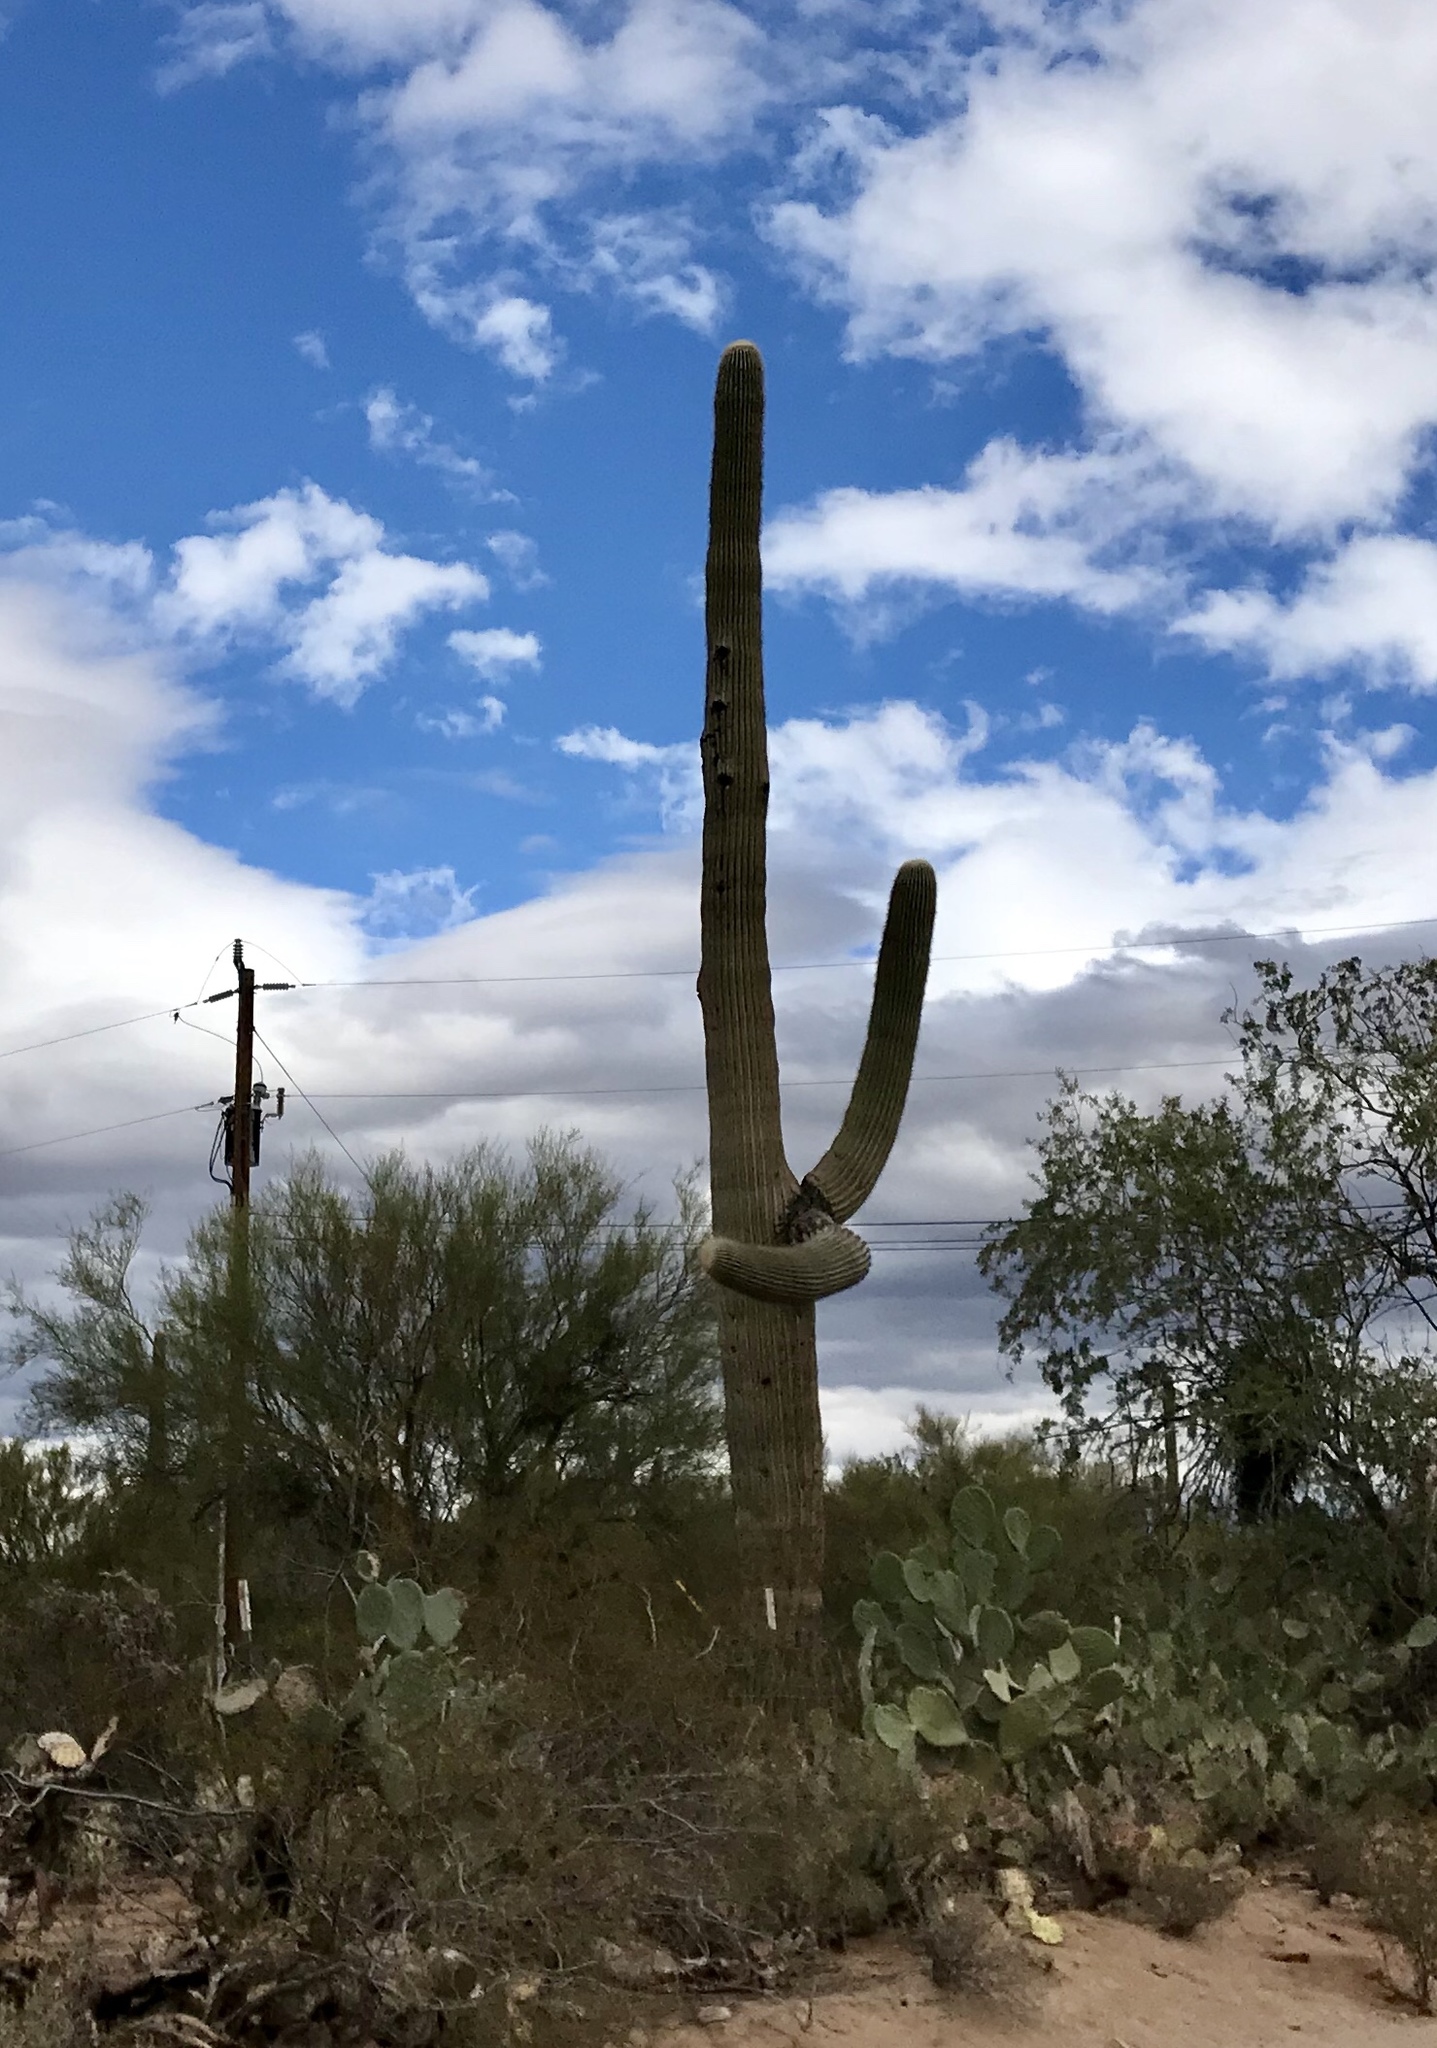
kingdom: Plantae
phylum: Tracheophyta
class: Magnoliopsida
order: Caryophyllales
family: Cactaceae
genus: Carnegiea
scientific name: Carnegiea gigantea
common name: Saguaro
